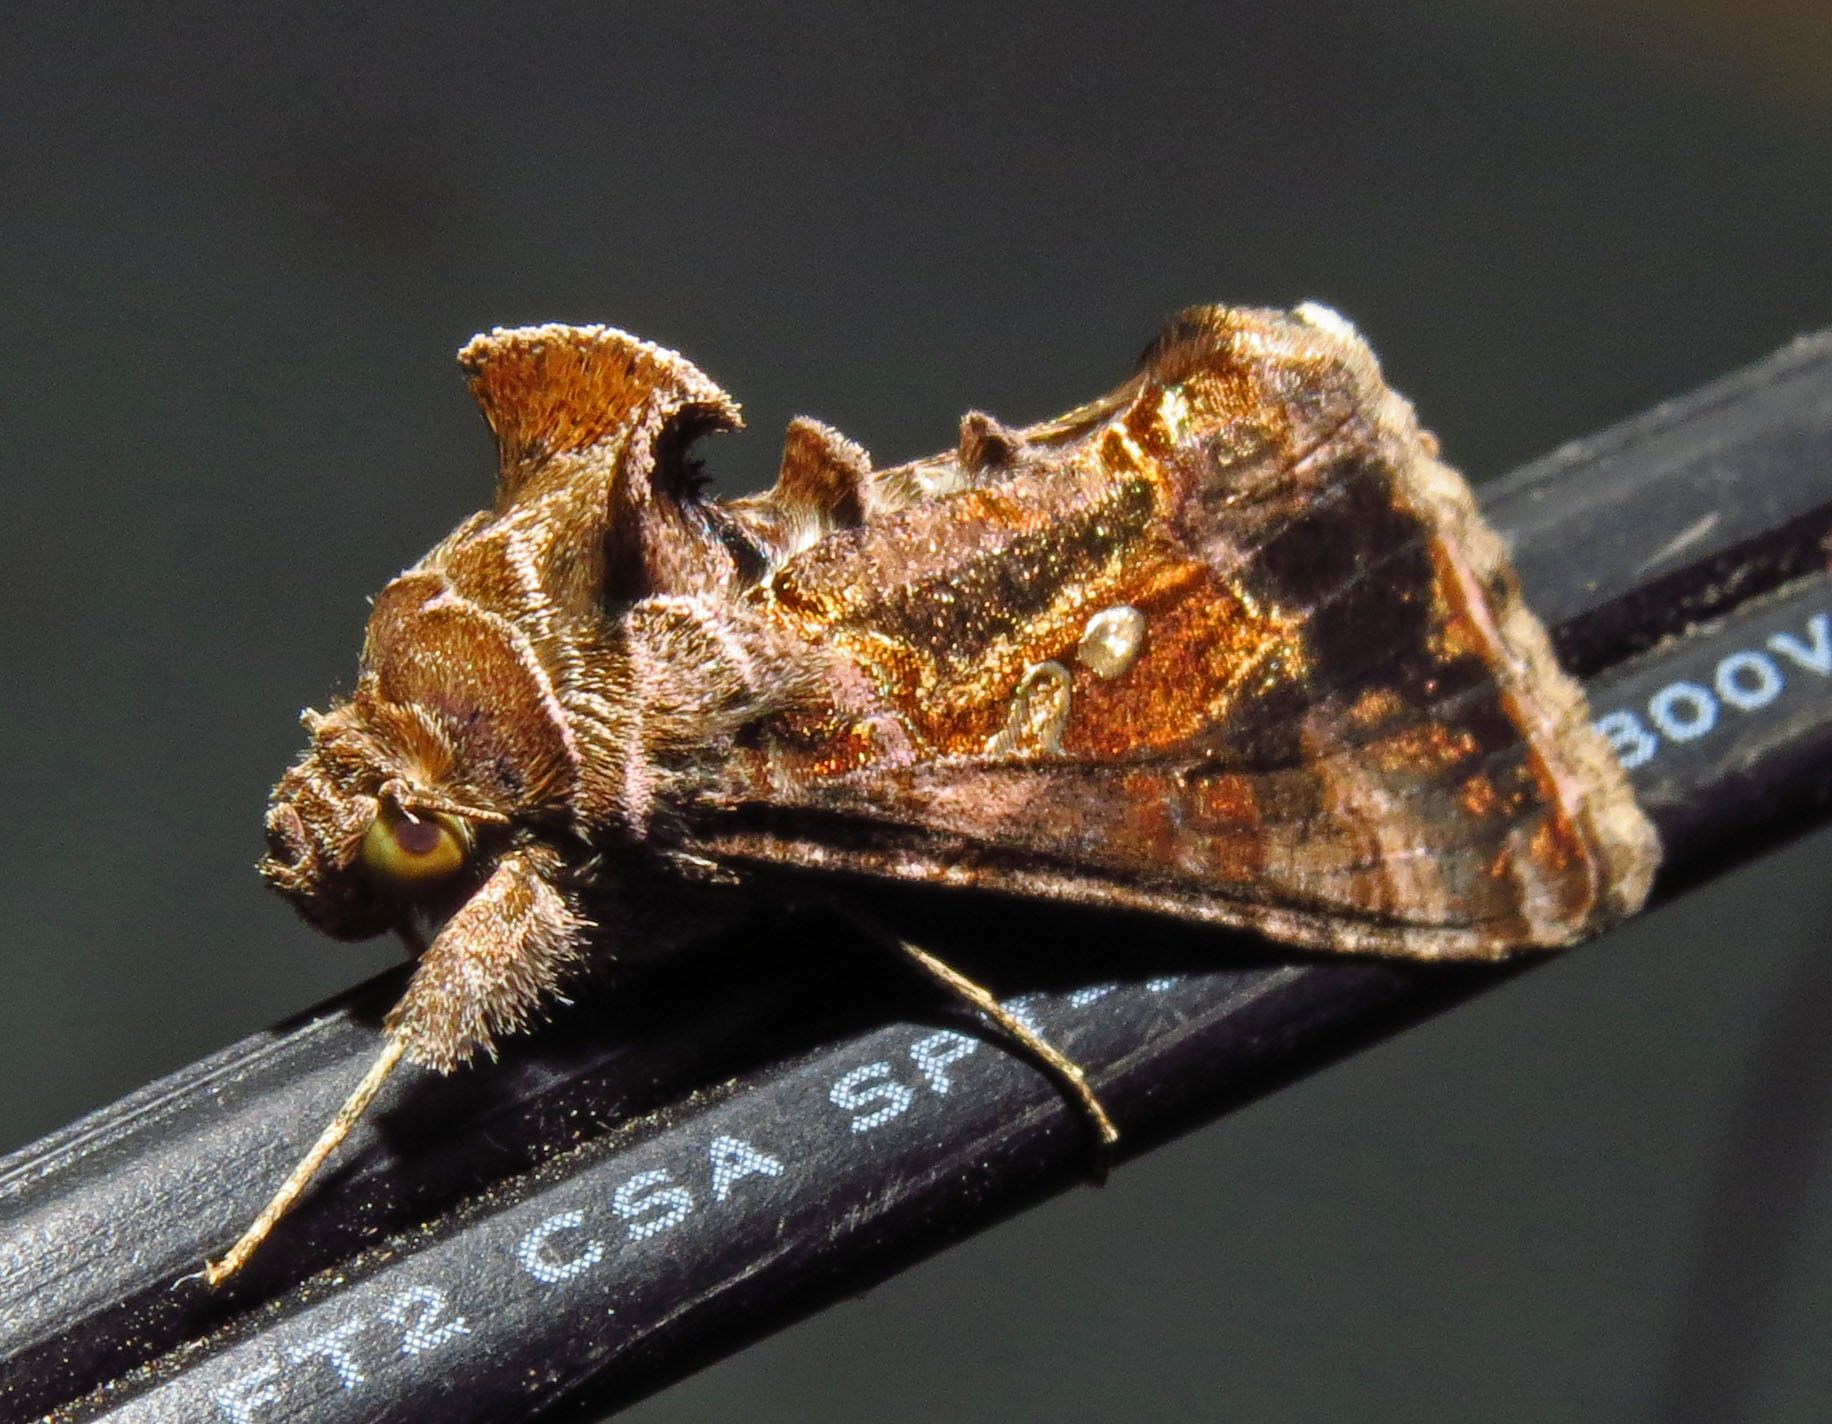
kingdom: Animalia
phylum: Arthropoda
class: Insecta
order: Lepidoptera
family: Noctuidae
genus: Chrysodeixis
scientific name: Chrysodeixis includens
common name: Cutworm moth
